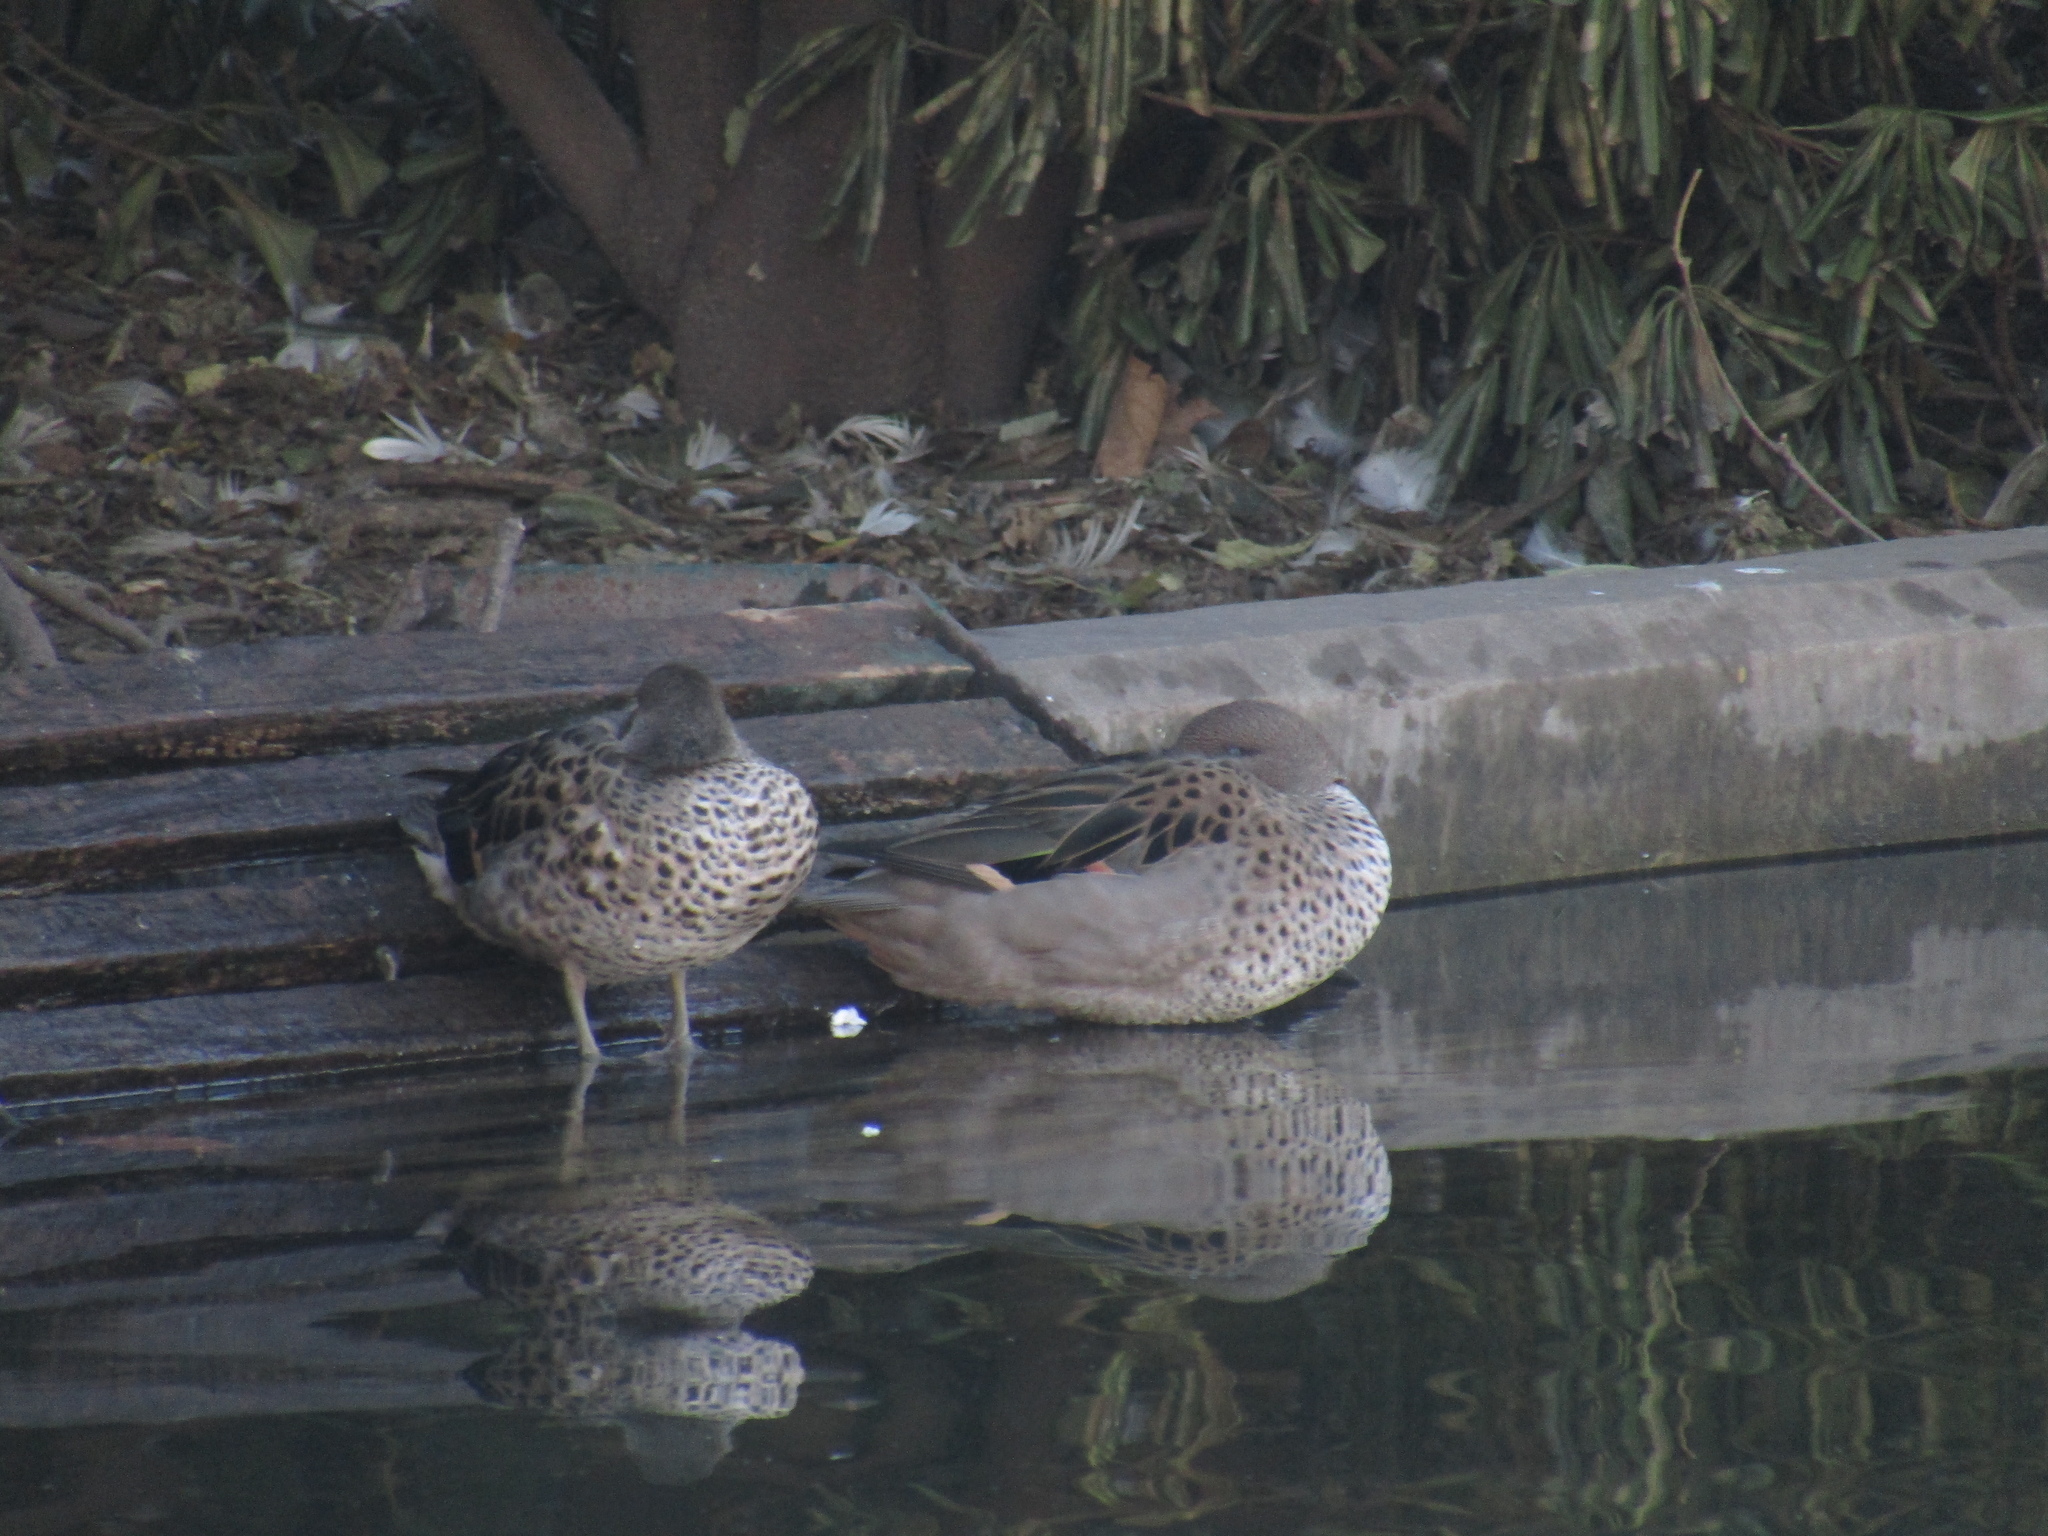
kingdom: Animalia
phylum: Chordata
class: Aves
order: Anseriformes
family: Anatidae
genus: Anas
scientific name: Anas flavirostris
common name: Yellow-billed teal
